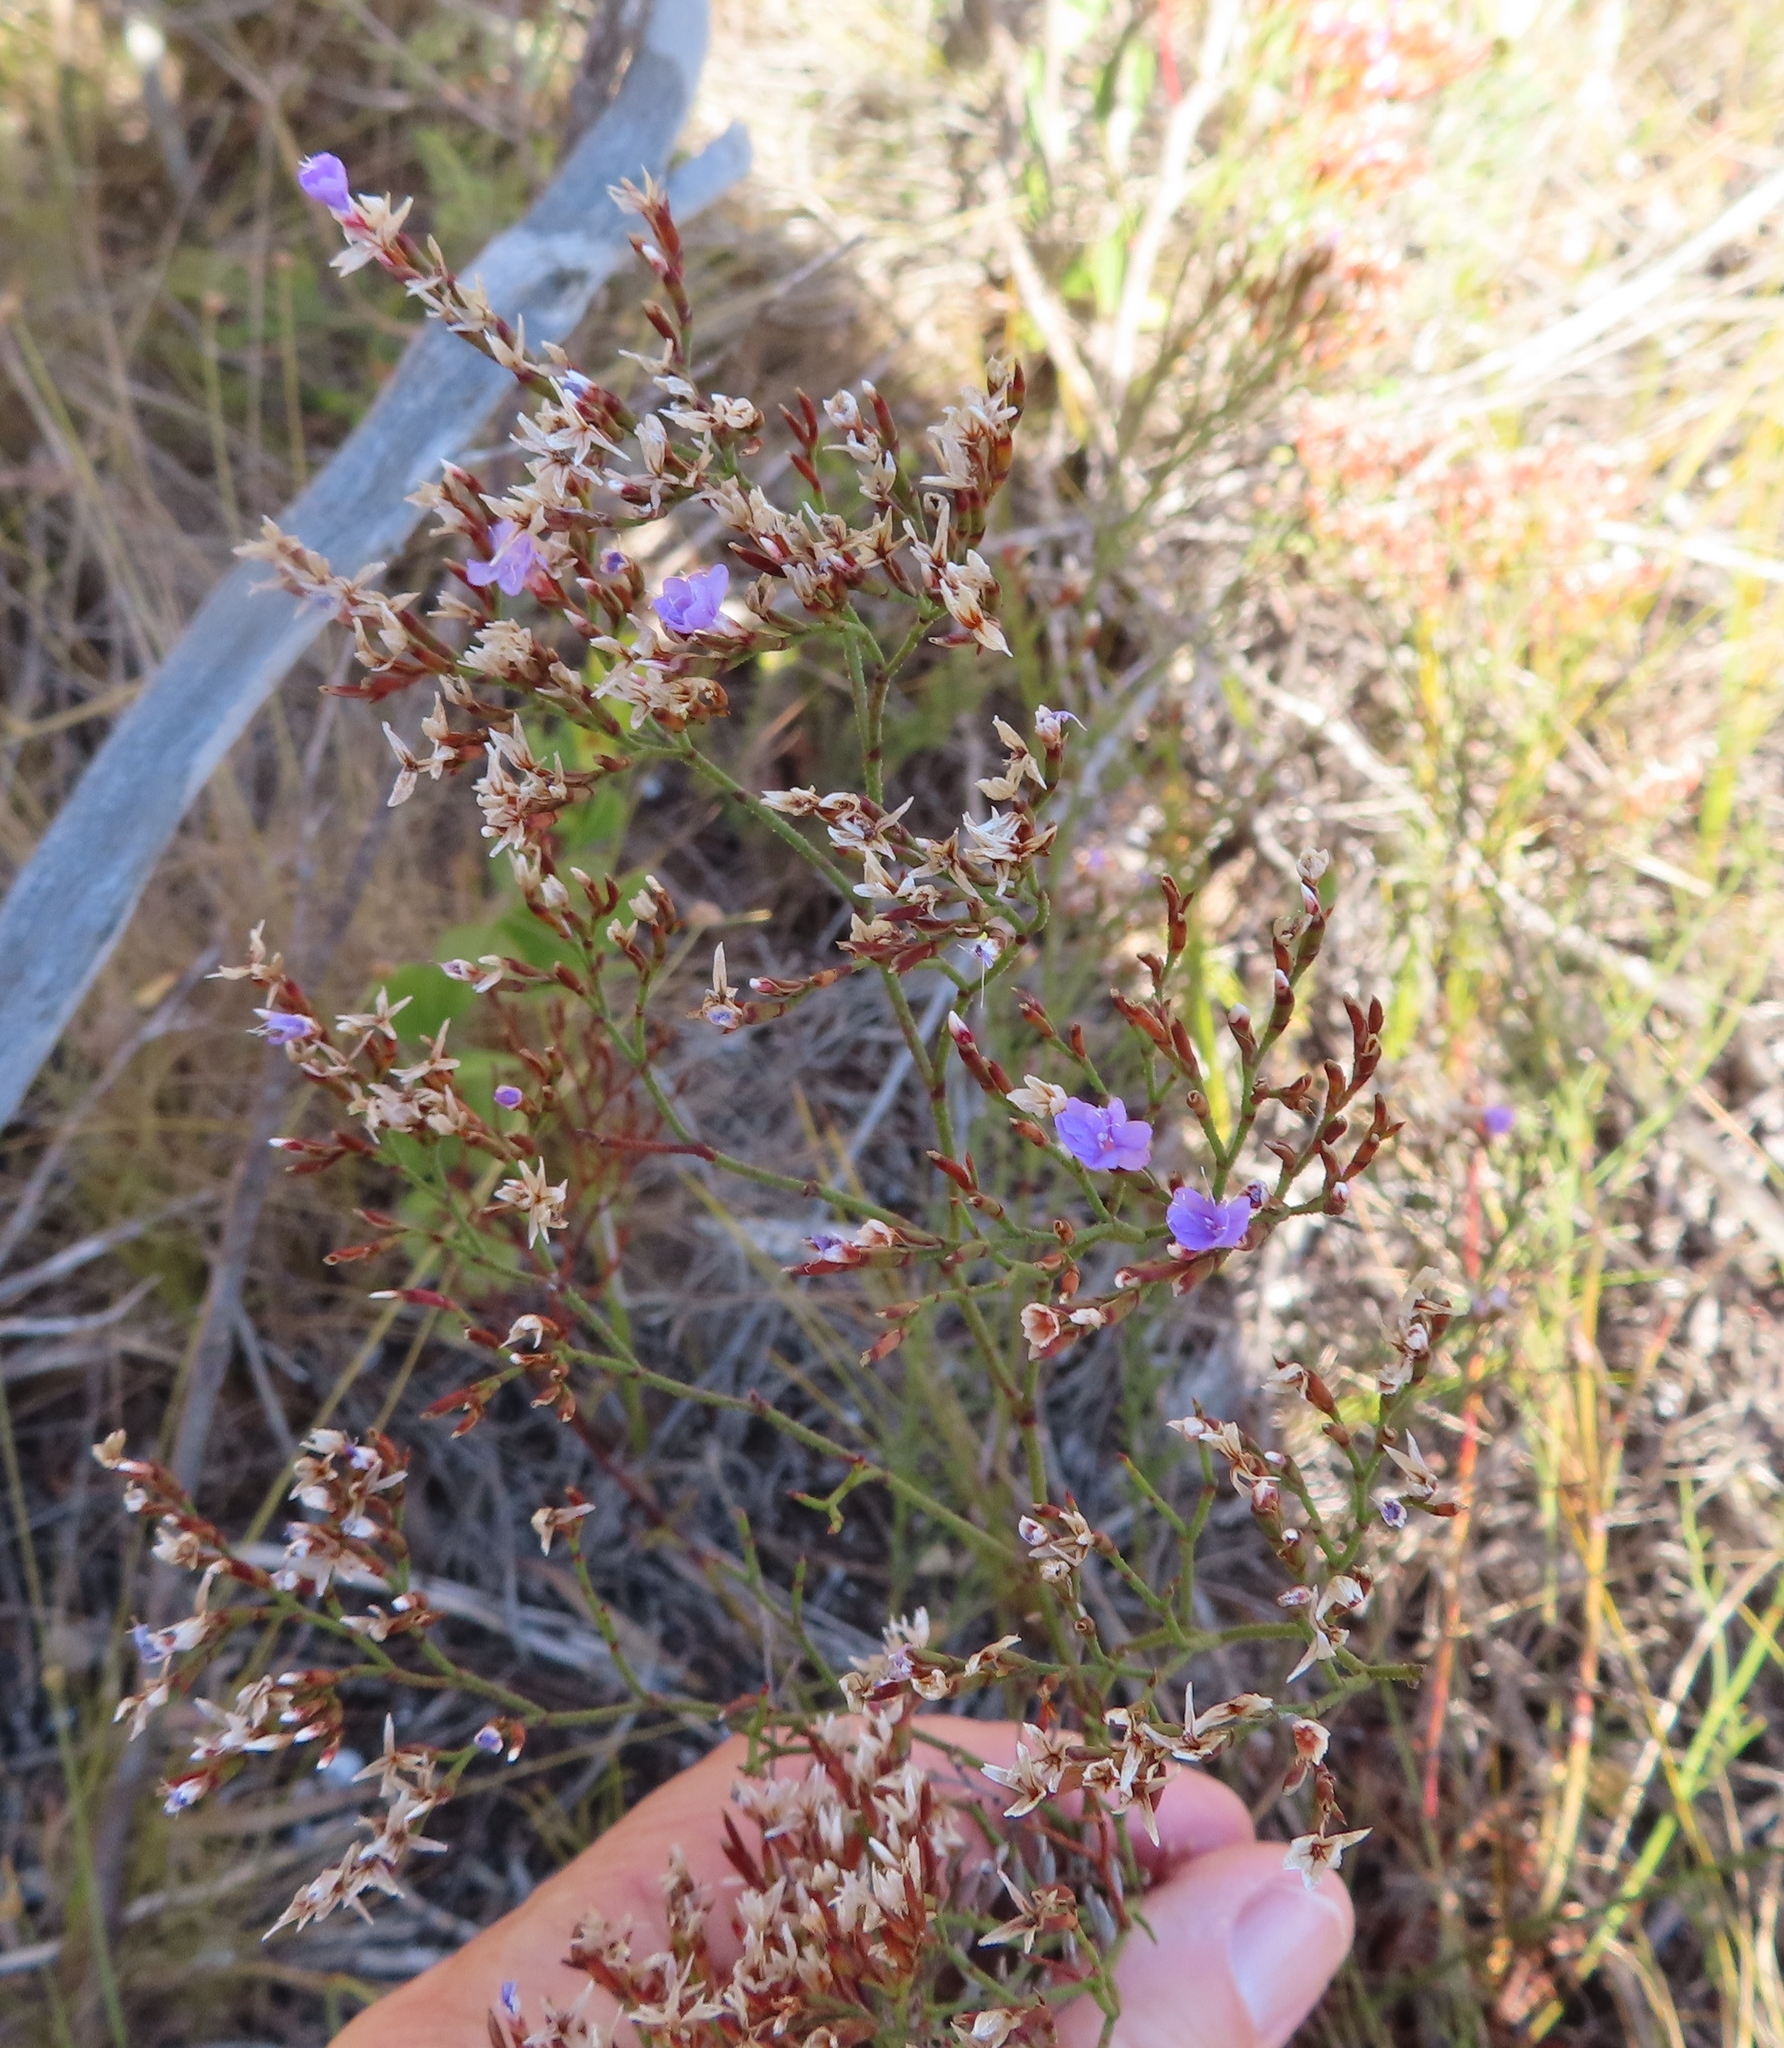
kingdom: Plantae
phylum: Tracheophyta
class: Magnoliopsida
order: Caryophyllales
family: Plumbaginaceae
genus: Limonium
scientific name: Limonium scabrum
